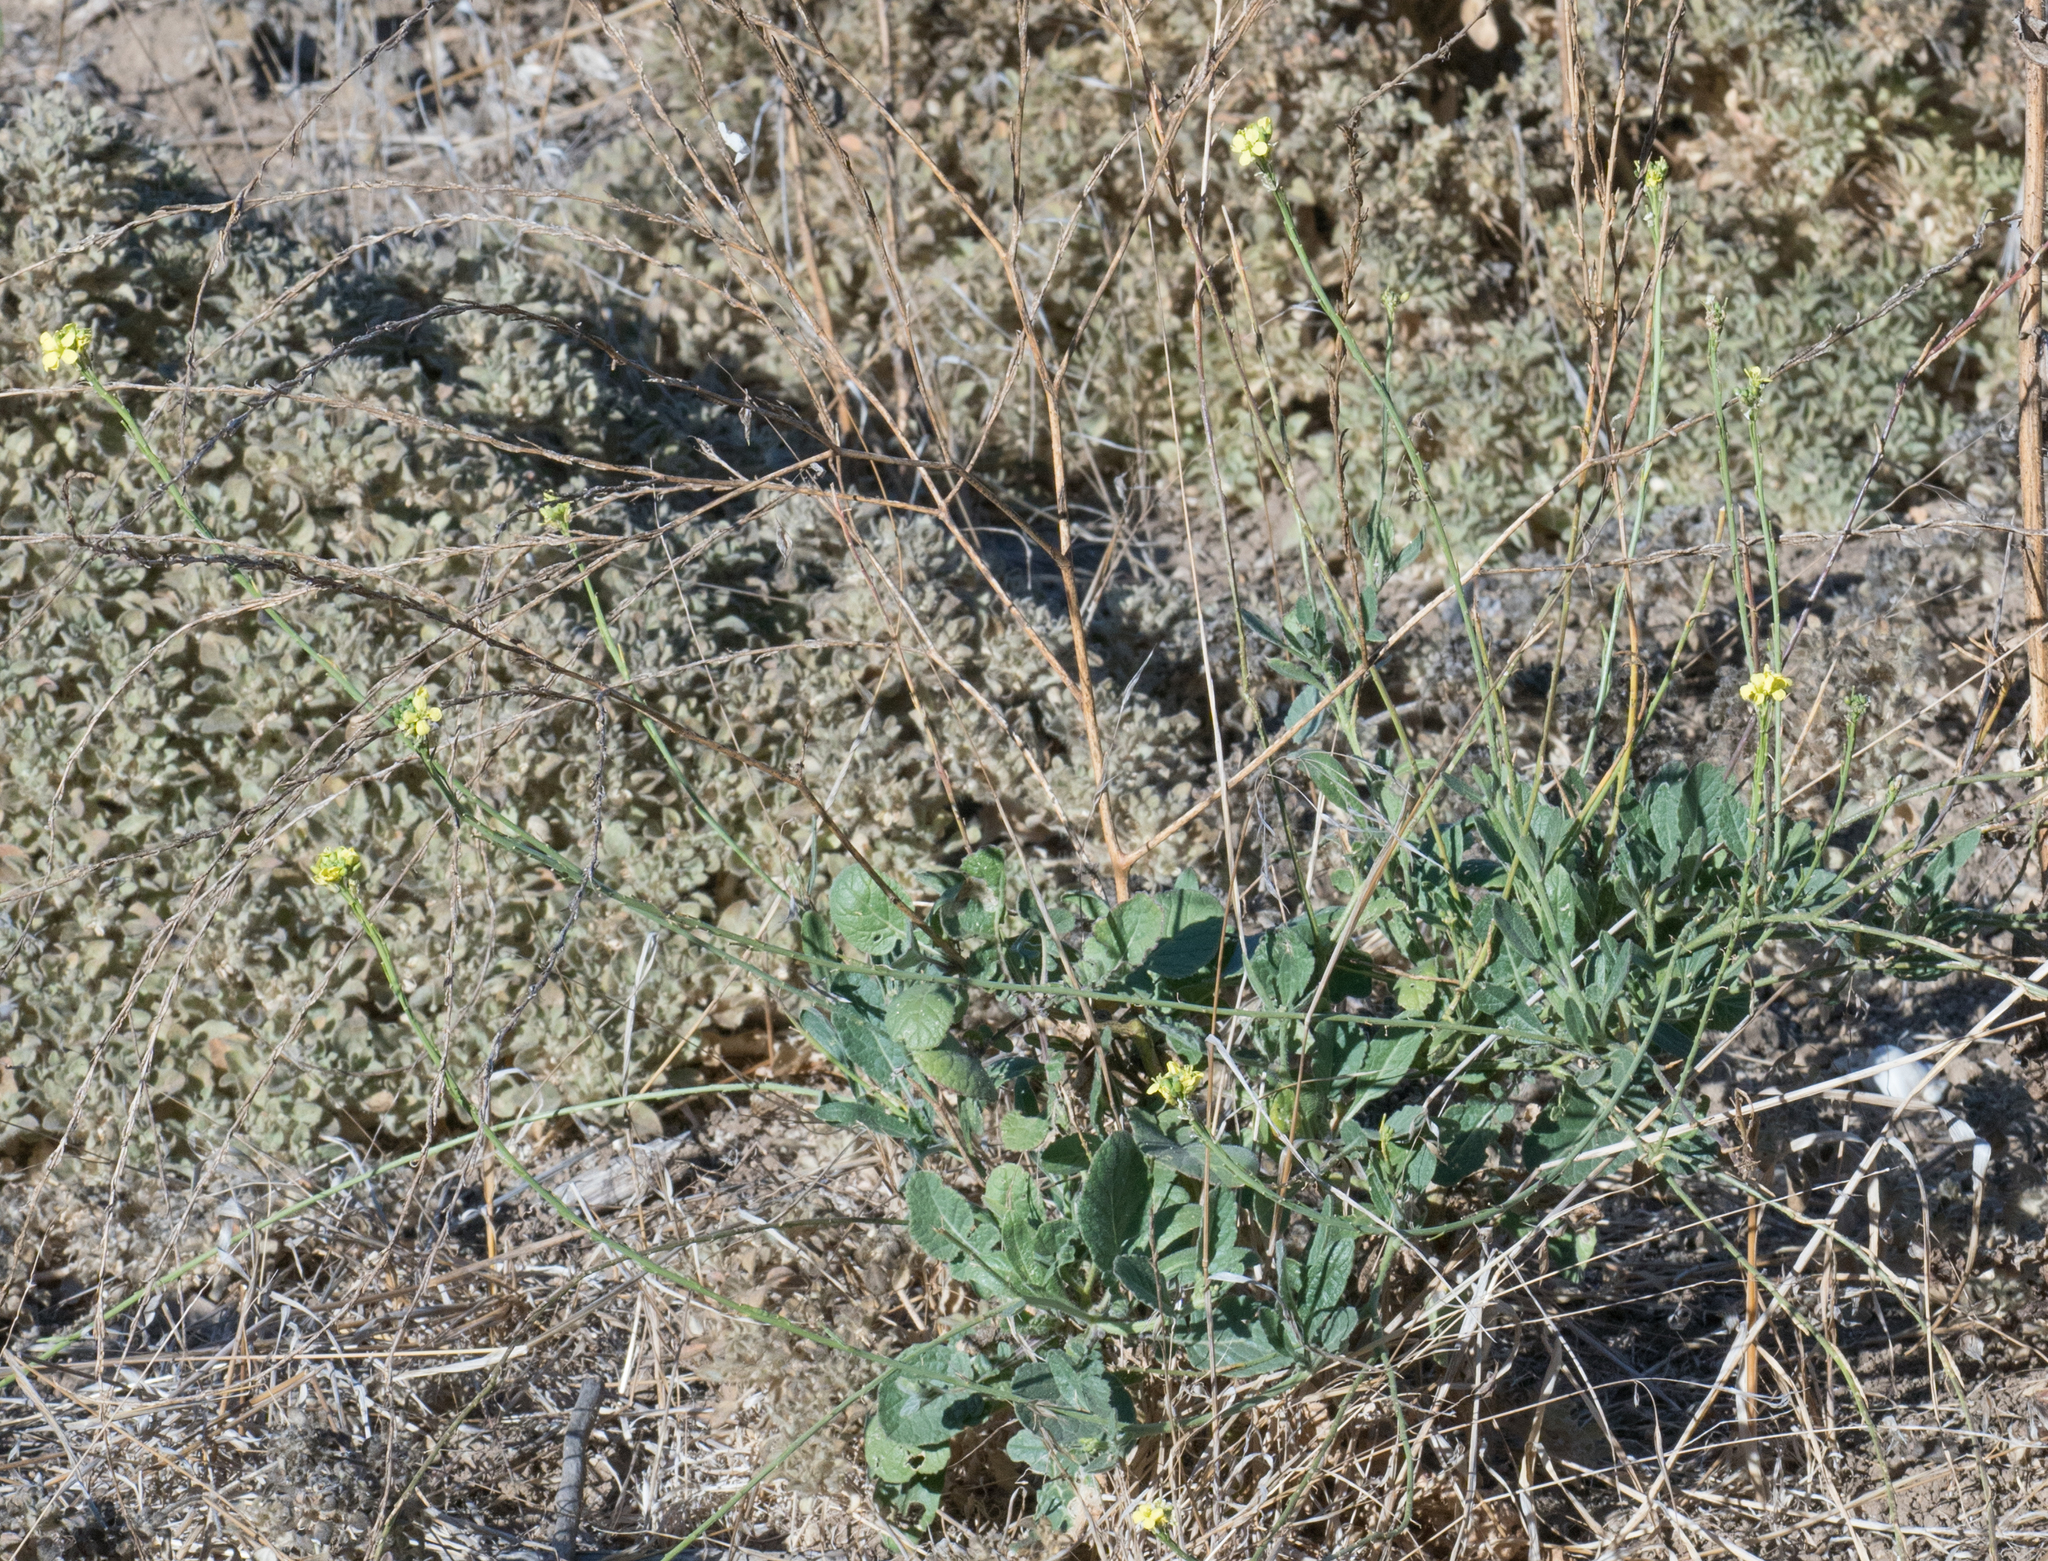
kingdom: Plantae
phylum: Tracheophyta
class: Magnoliopsida
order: Brassicales
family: Brassicaceae
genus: Hirschfeldia
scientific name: Hirschfeldia incana
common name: Hoary mustard
